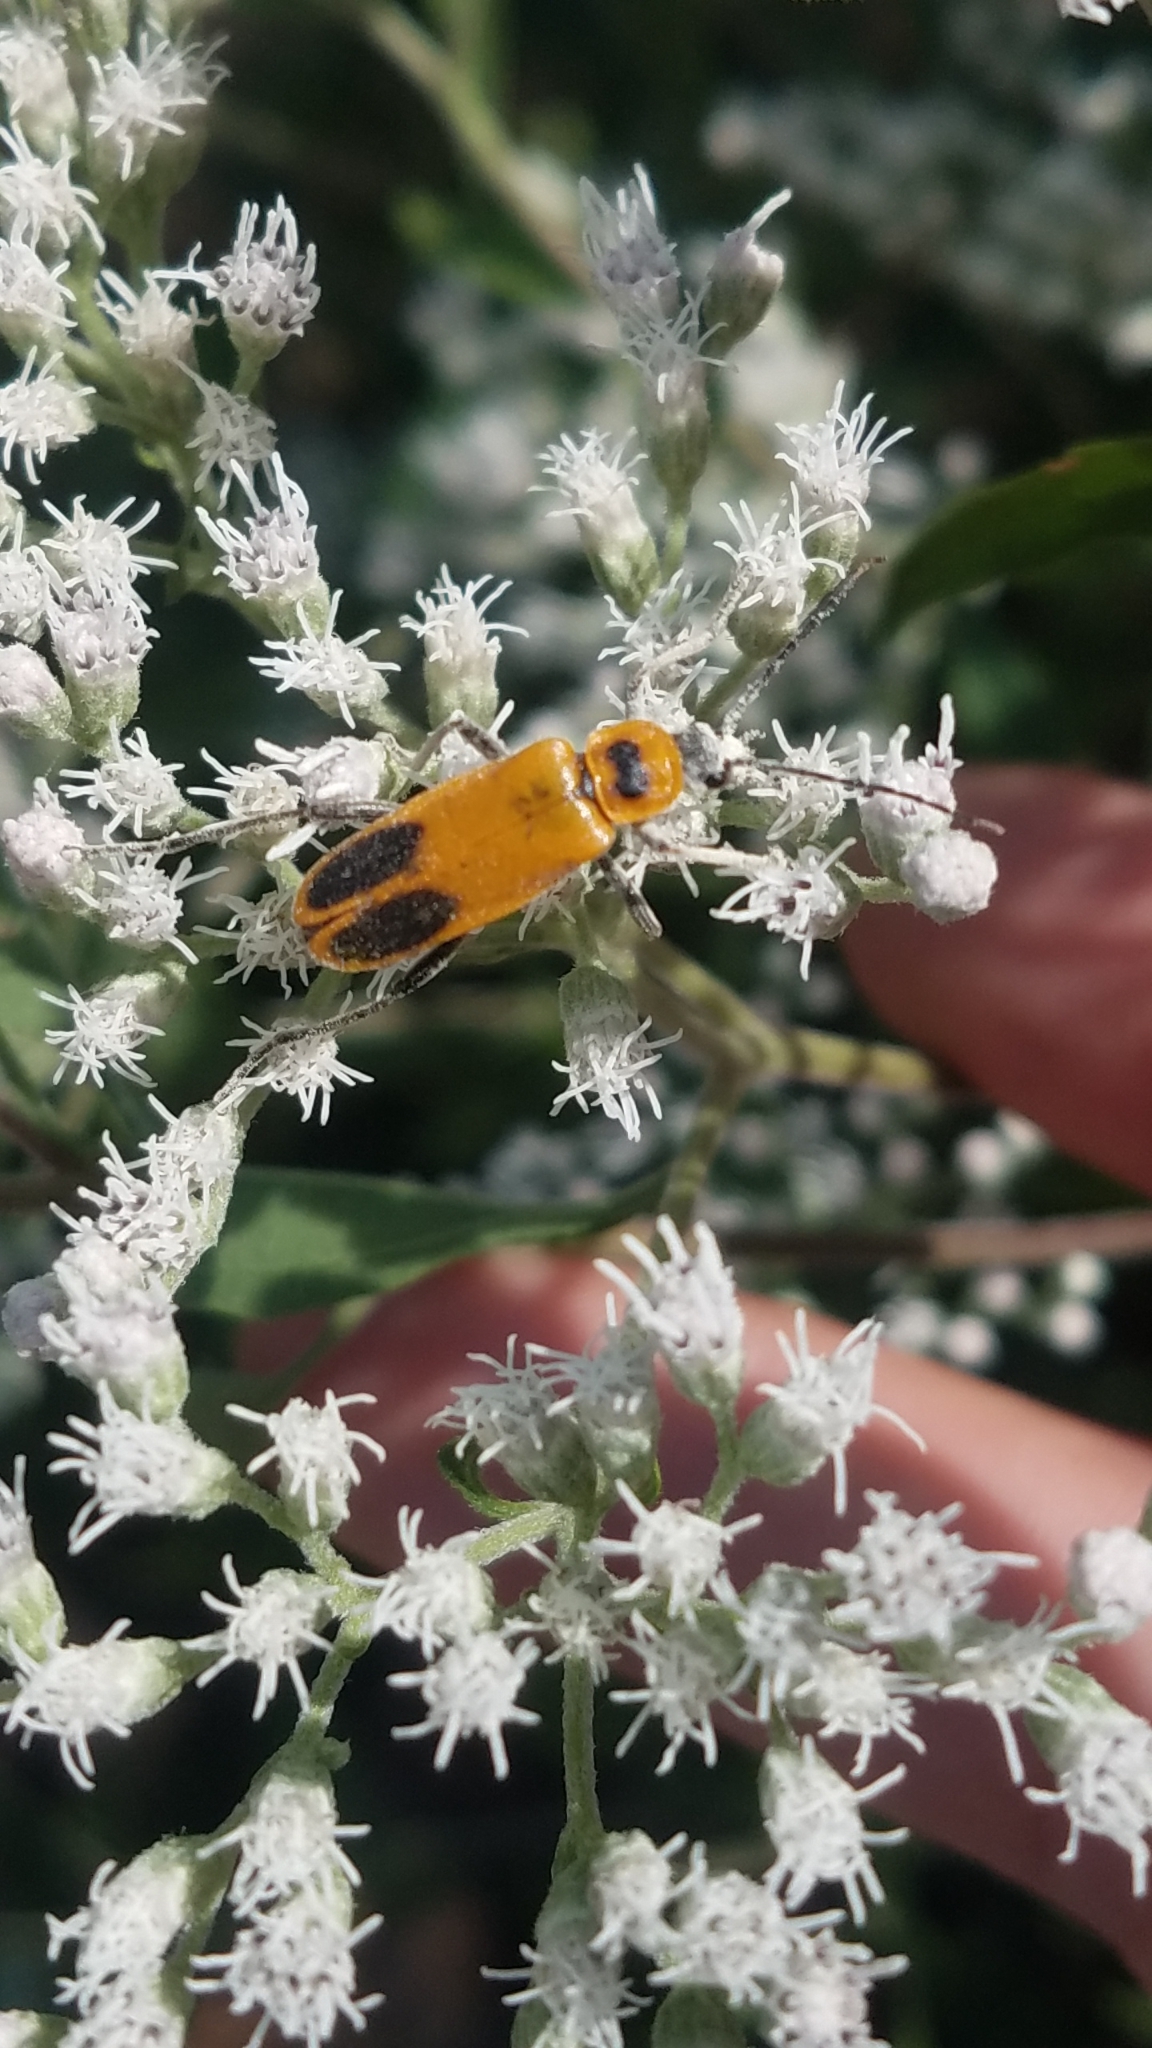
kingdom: Animalia
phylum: Arthropoda
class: Insecta
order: Coleoptera
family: Cantharidae
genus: Chauliognathus
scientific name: Chauliognathus pensylvanicus
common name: Goldenrod soldier beetle
